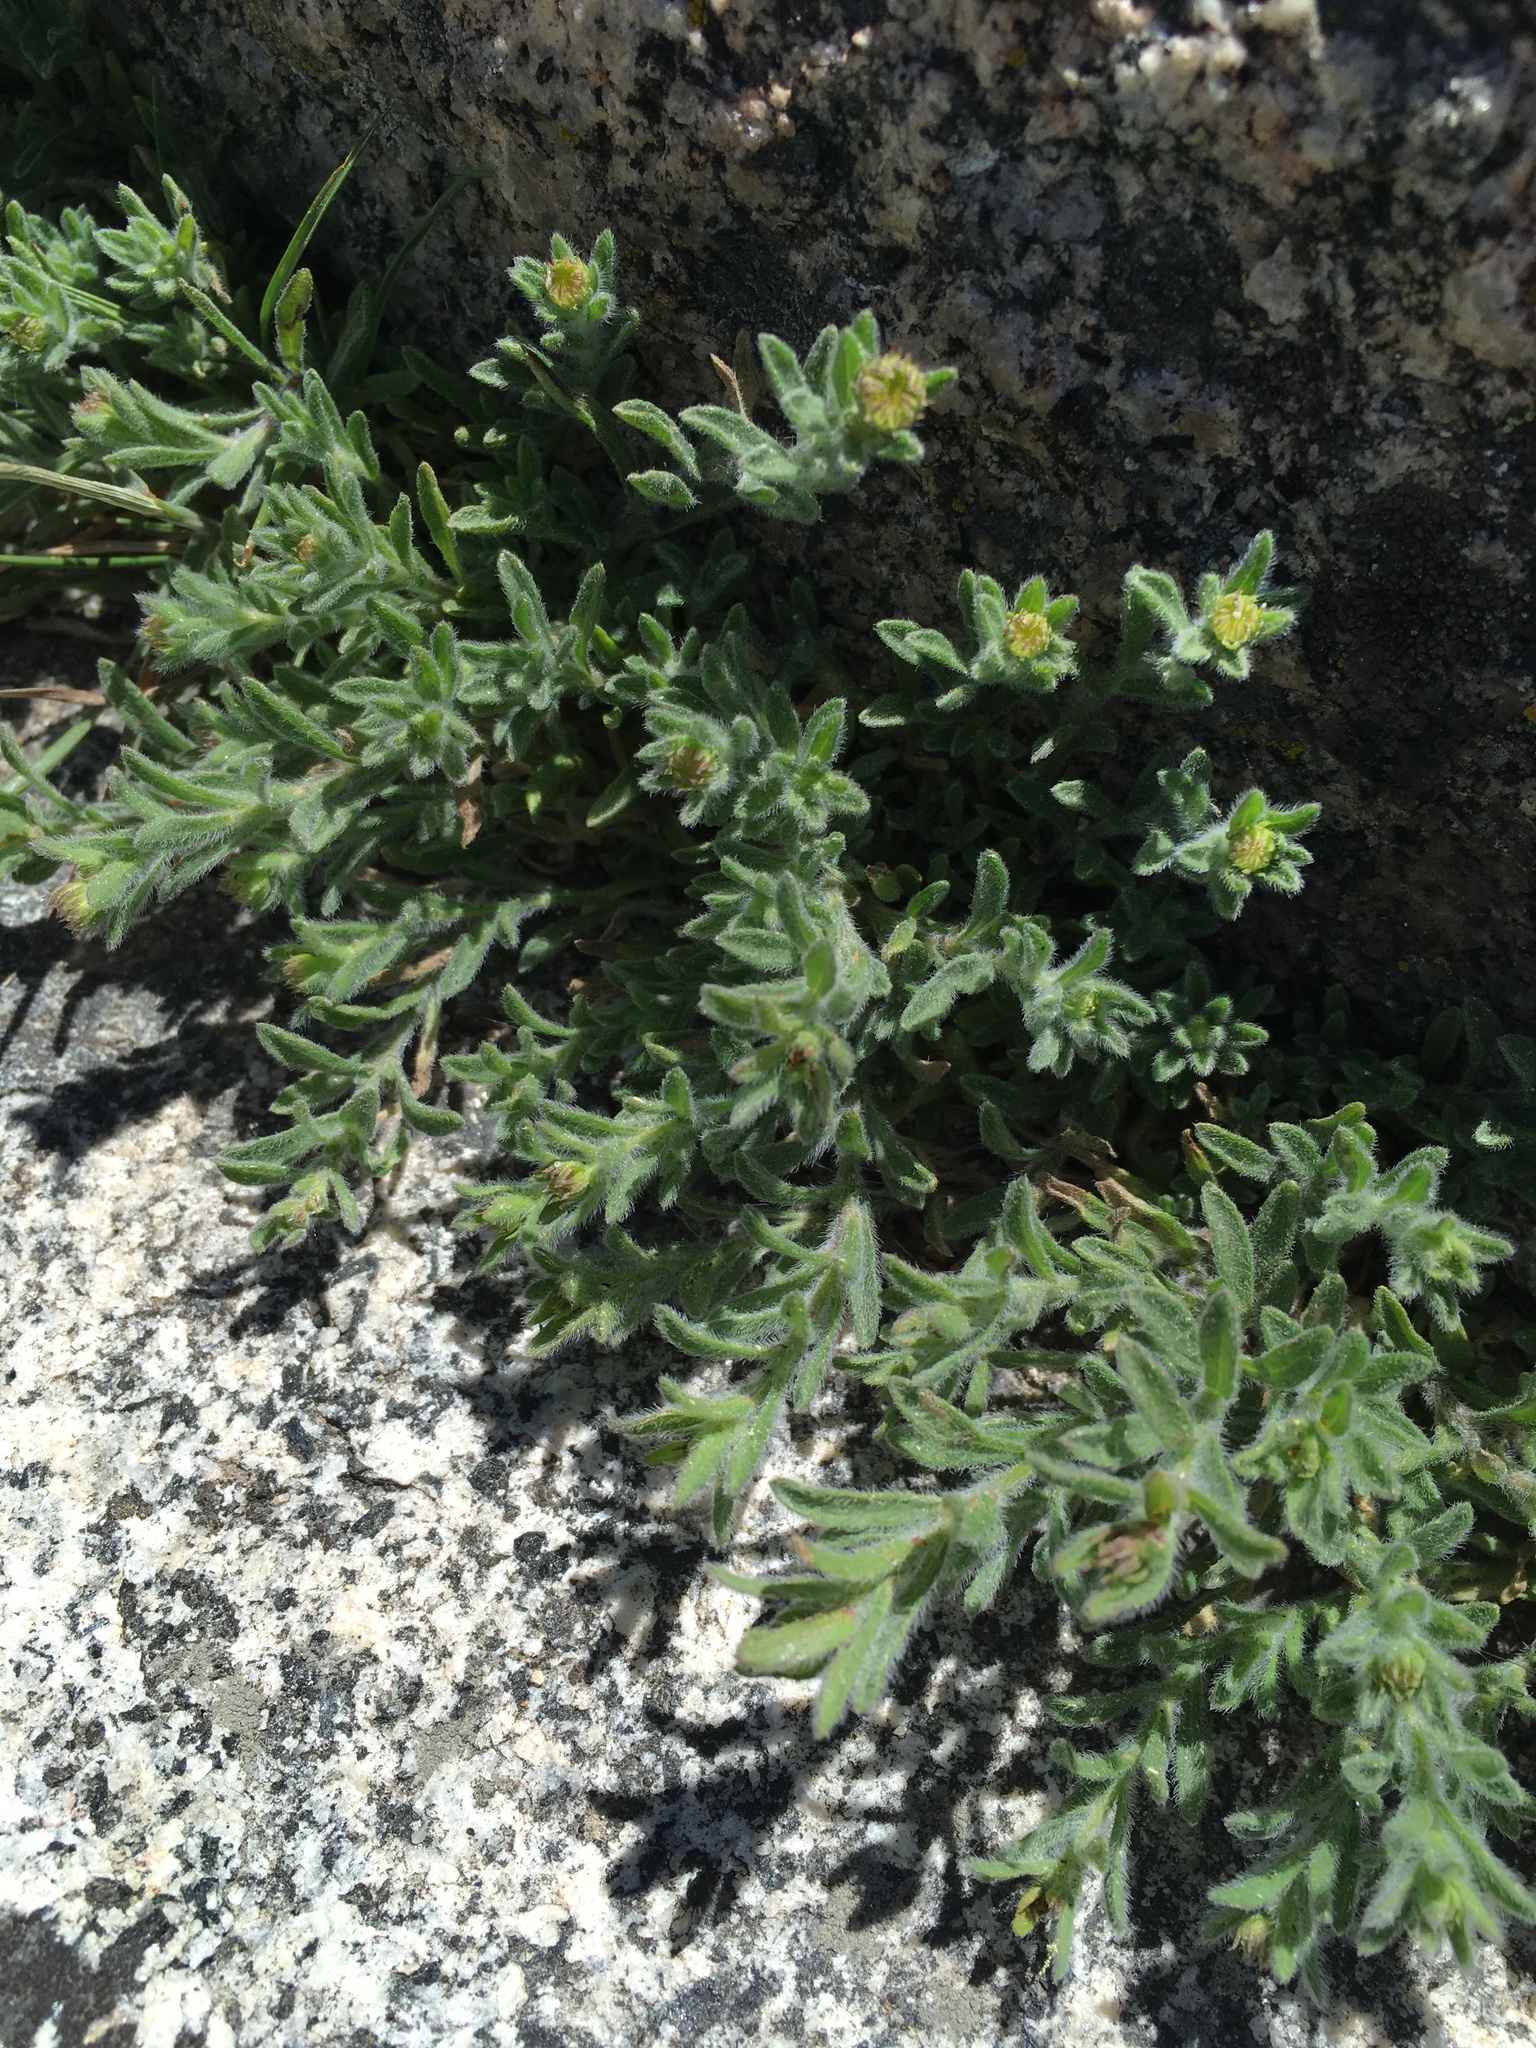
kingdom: Plantae
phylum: Tracheophyta
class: Magnoliopsida
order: Asterales
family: Asteraceae
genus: Erigeron
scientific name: Erigeron miser
